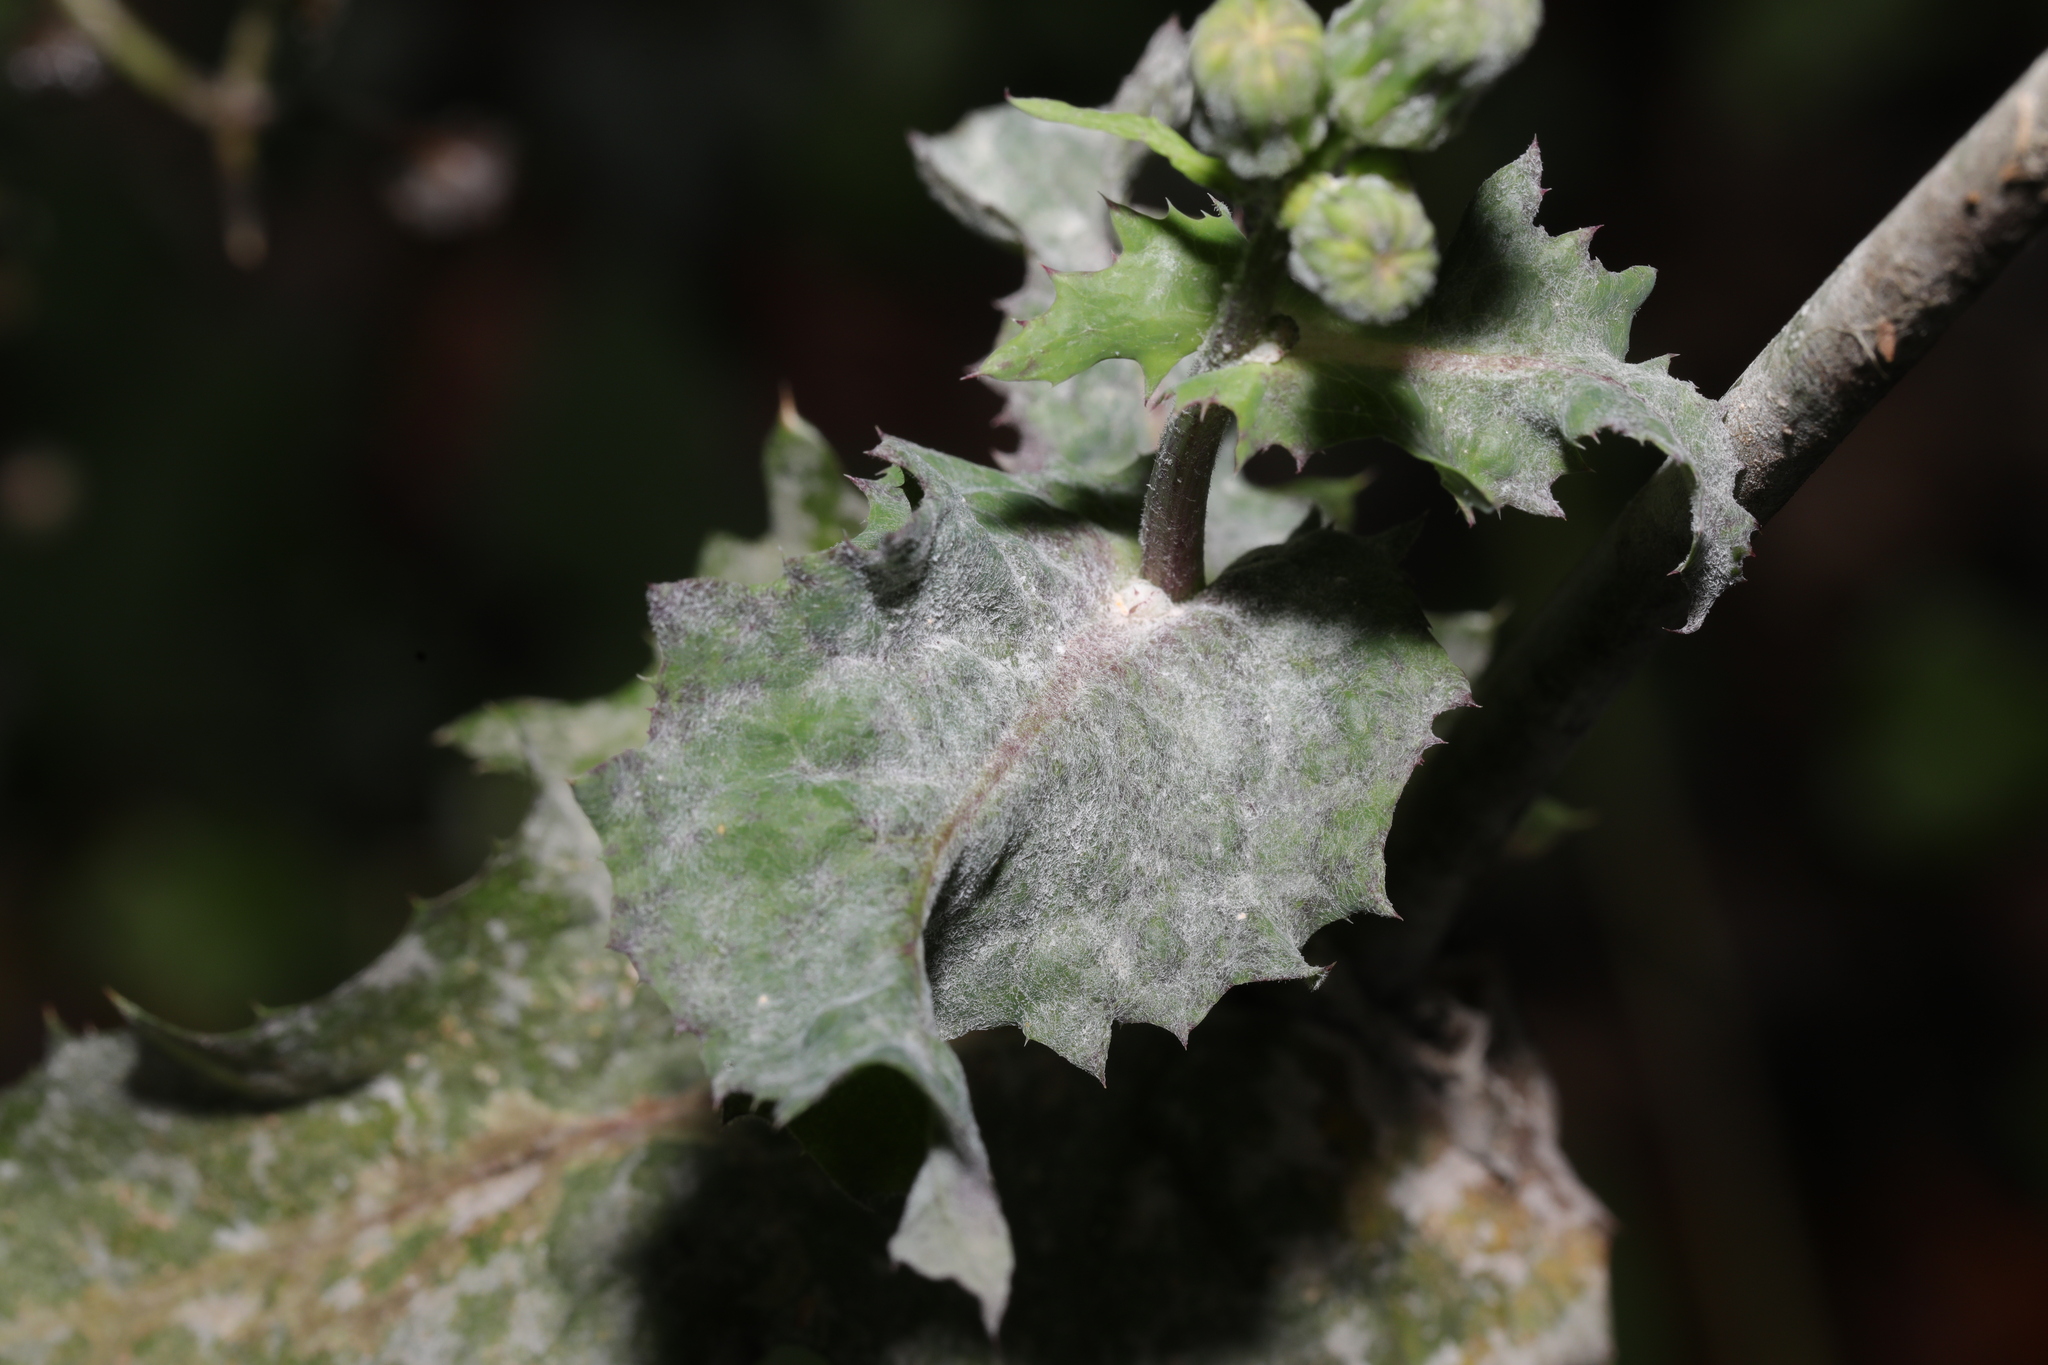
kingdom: Fungi
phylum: Ascomycota
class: Leotiomycetes
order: Helotiales
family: Erysiphaceae
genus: Golovinomyces
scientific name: Golovinomyces sonchicola
